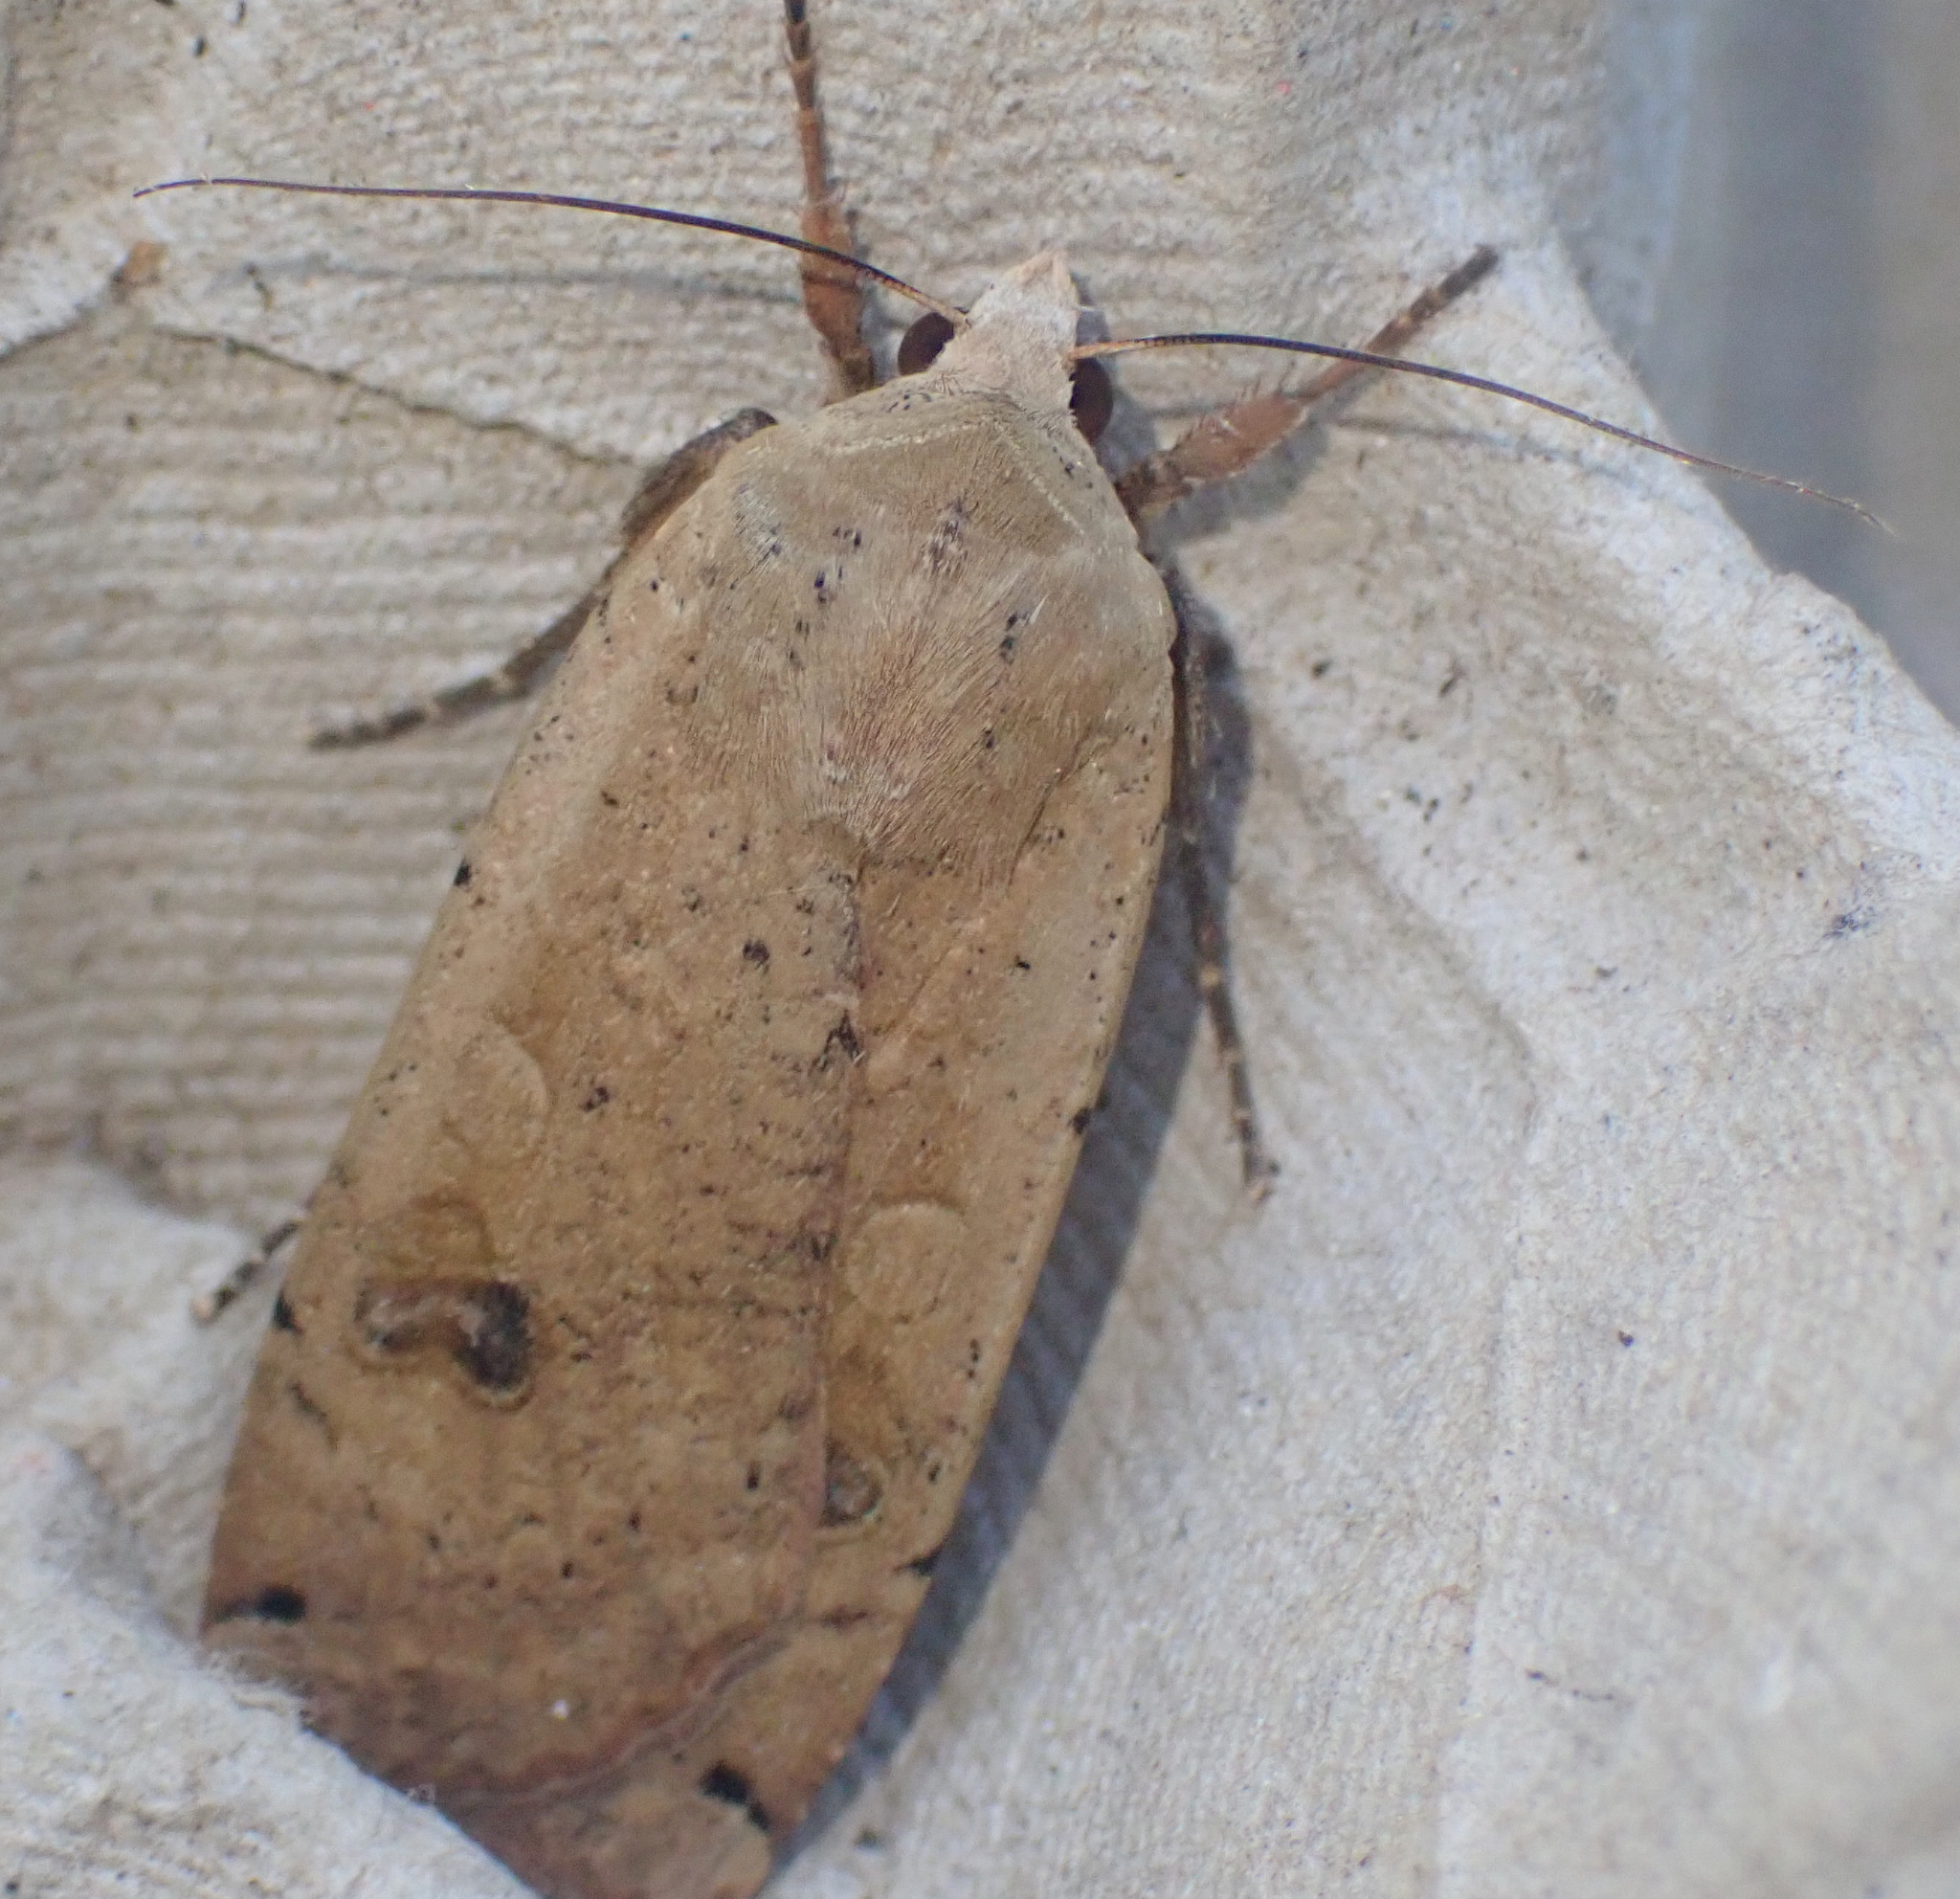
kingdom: Animalia
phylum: Arthropoda
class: Insecta
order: Lepidoptera
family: Noctuidae
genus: Noctua
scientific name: Noctua pronuba
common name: Large yellow underwing
